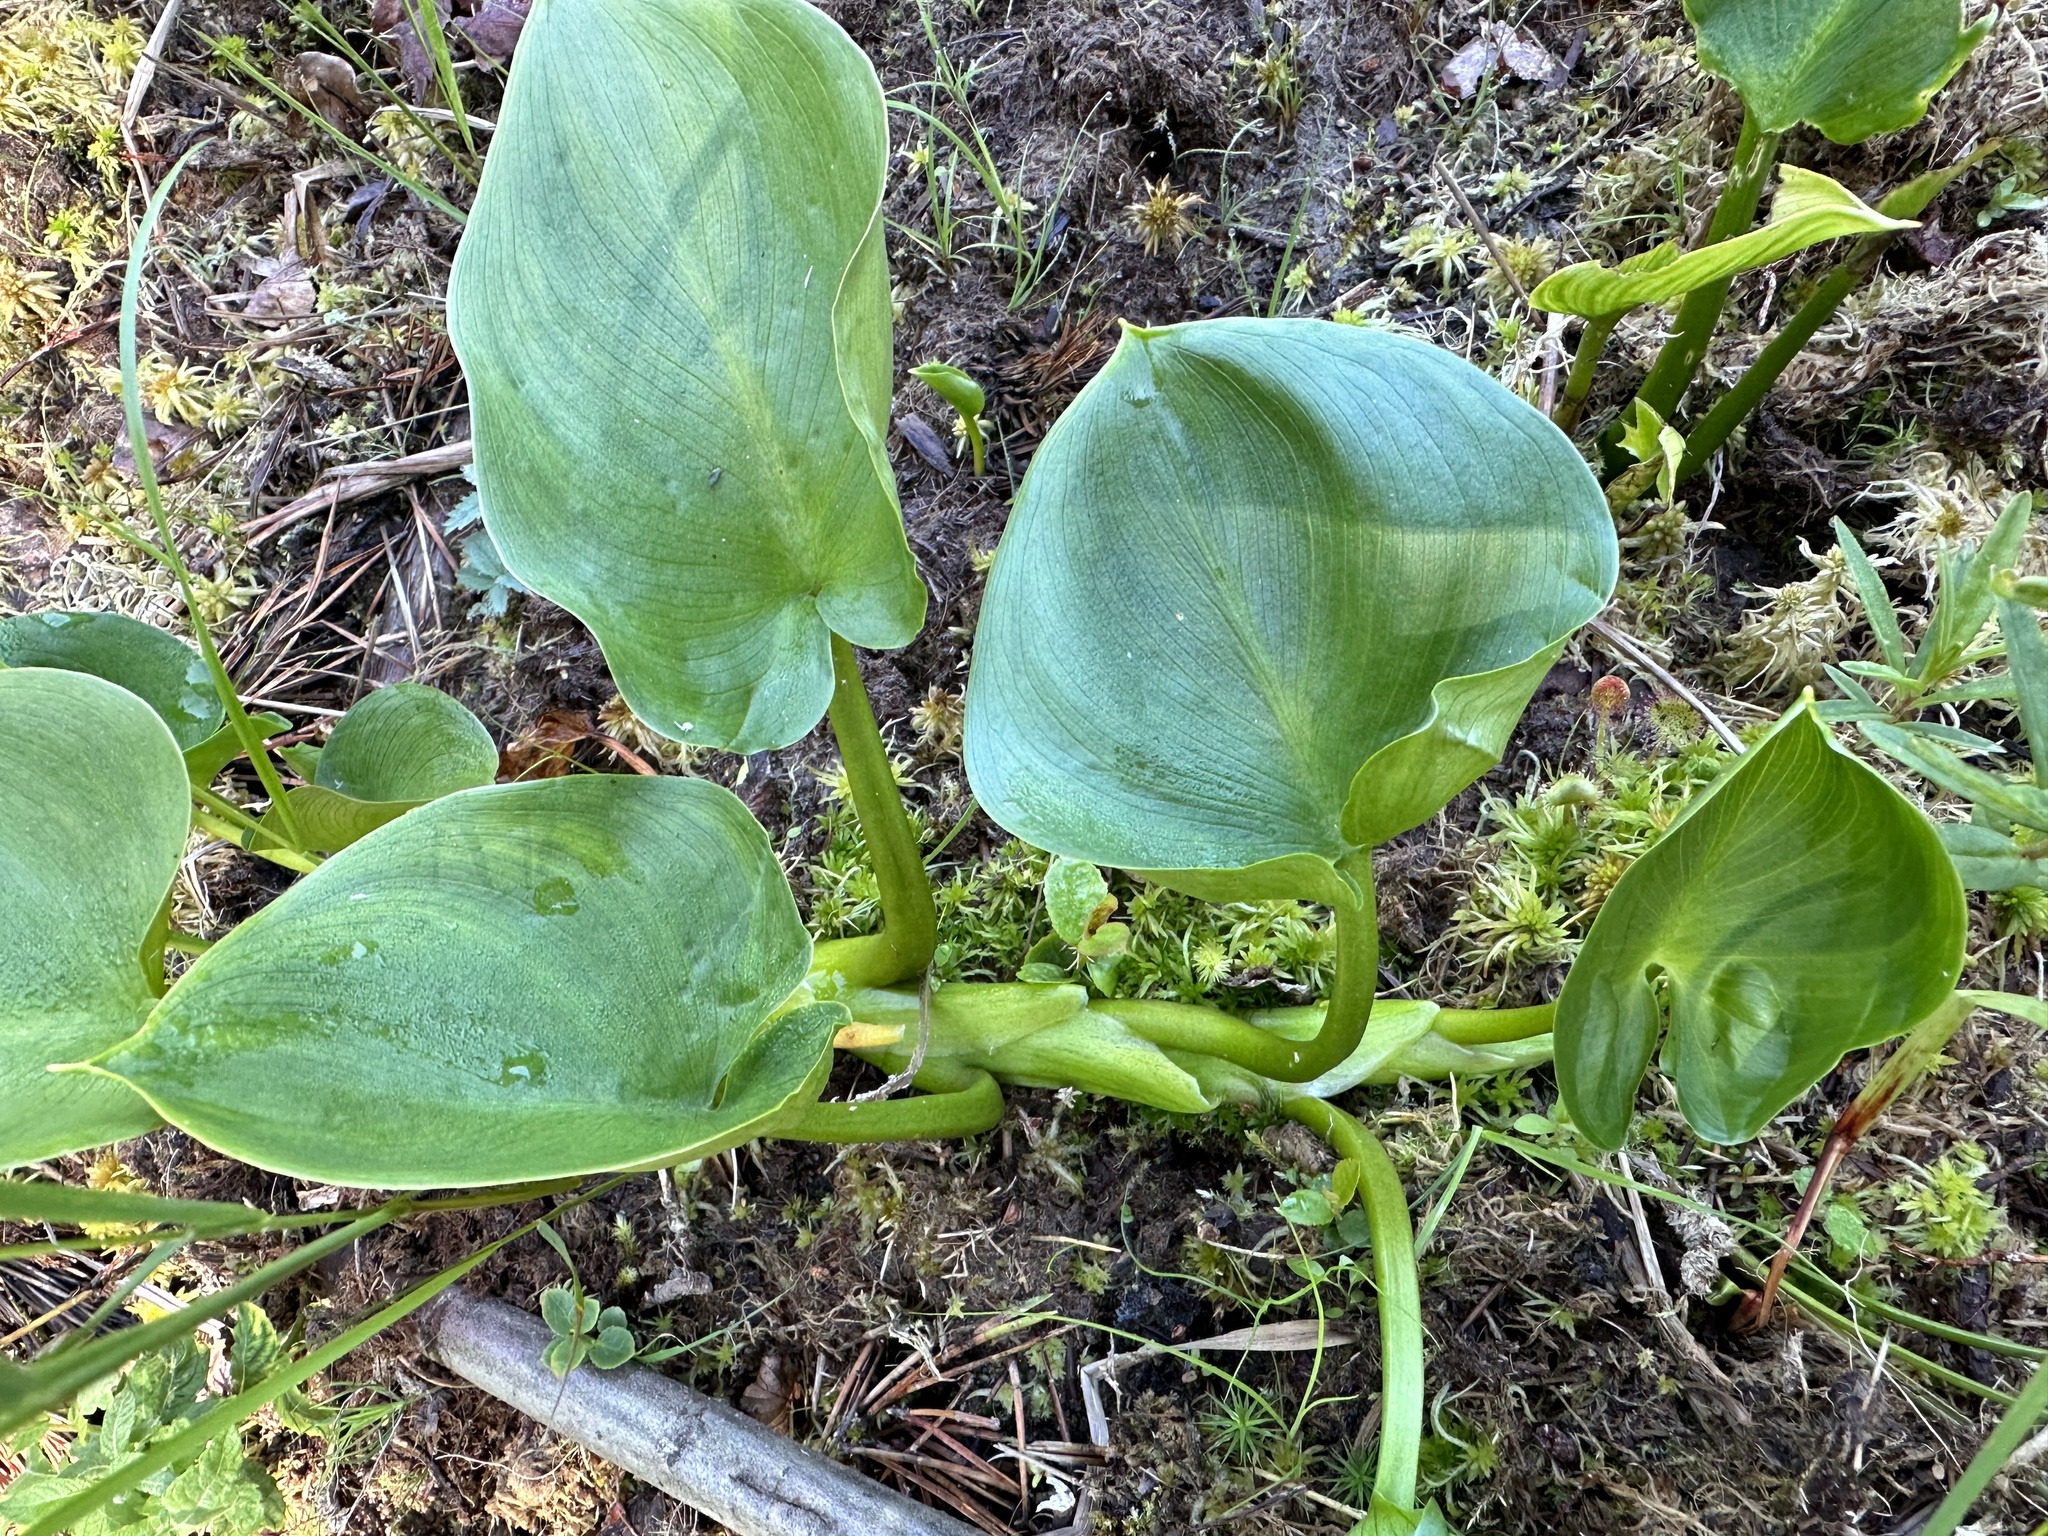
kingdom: Plantae
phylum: Tracheophyta
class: Liliopsida
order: Alismatales
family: Araceae
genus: Calla
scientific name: Calla palustris
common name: Bog arum
